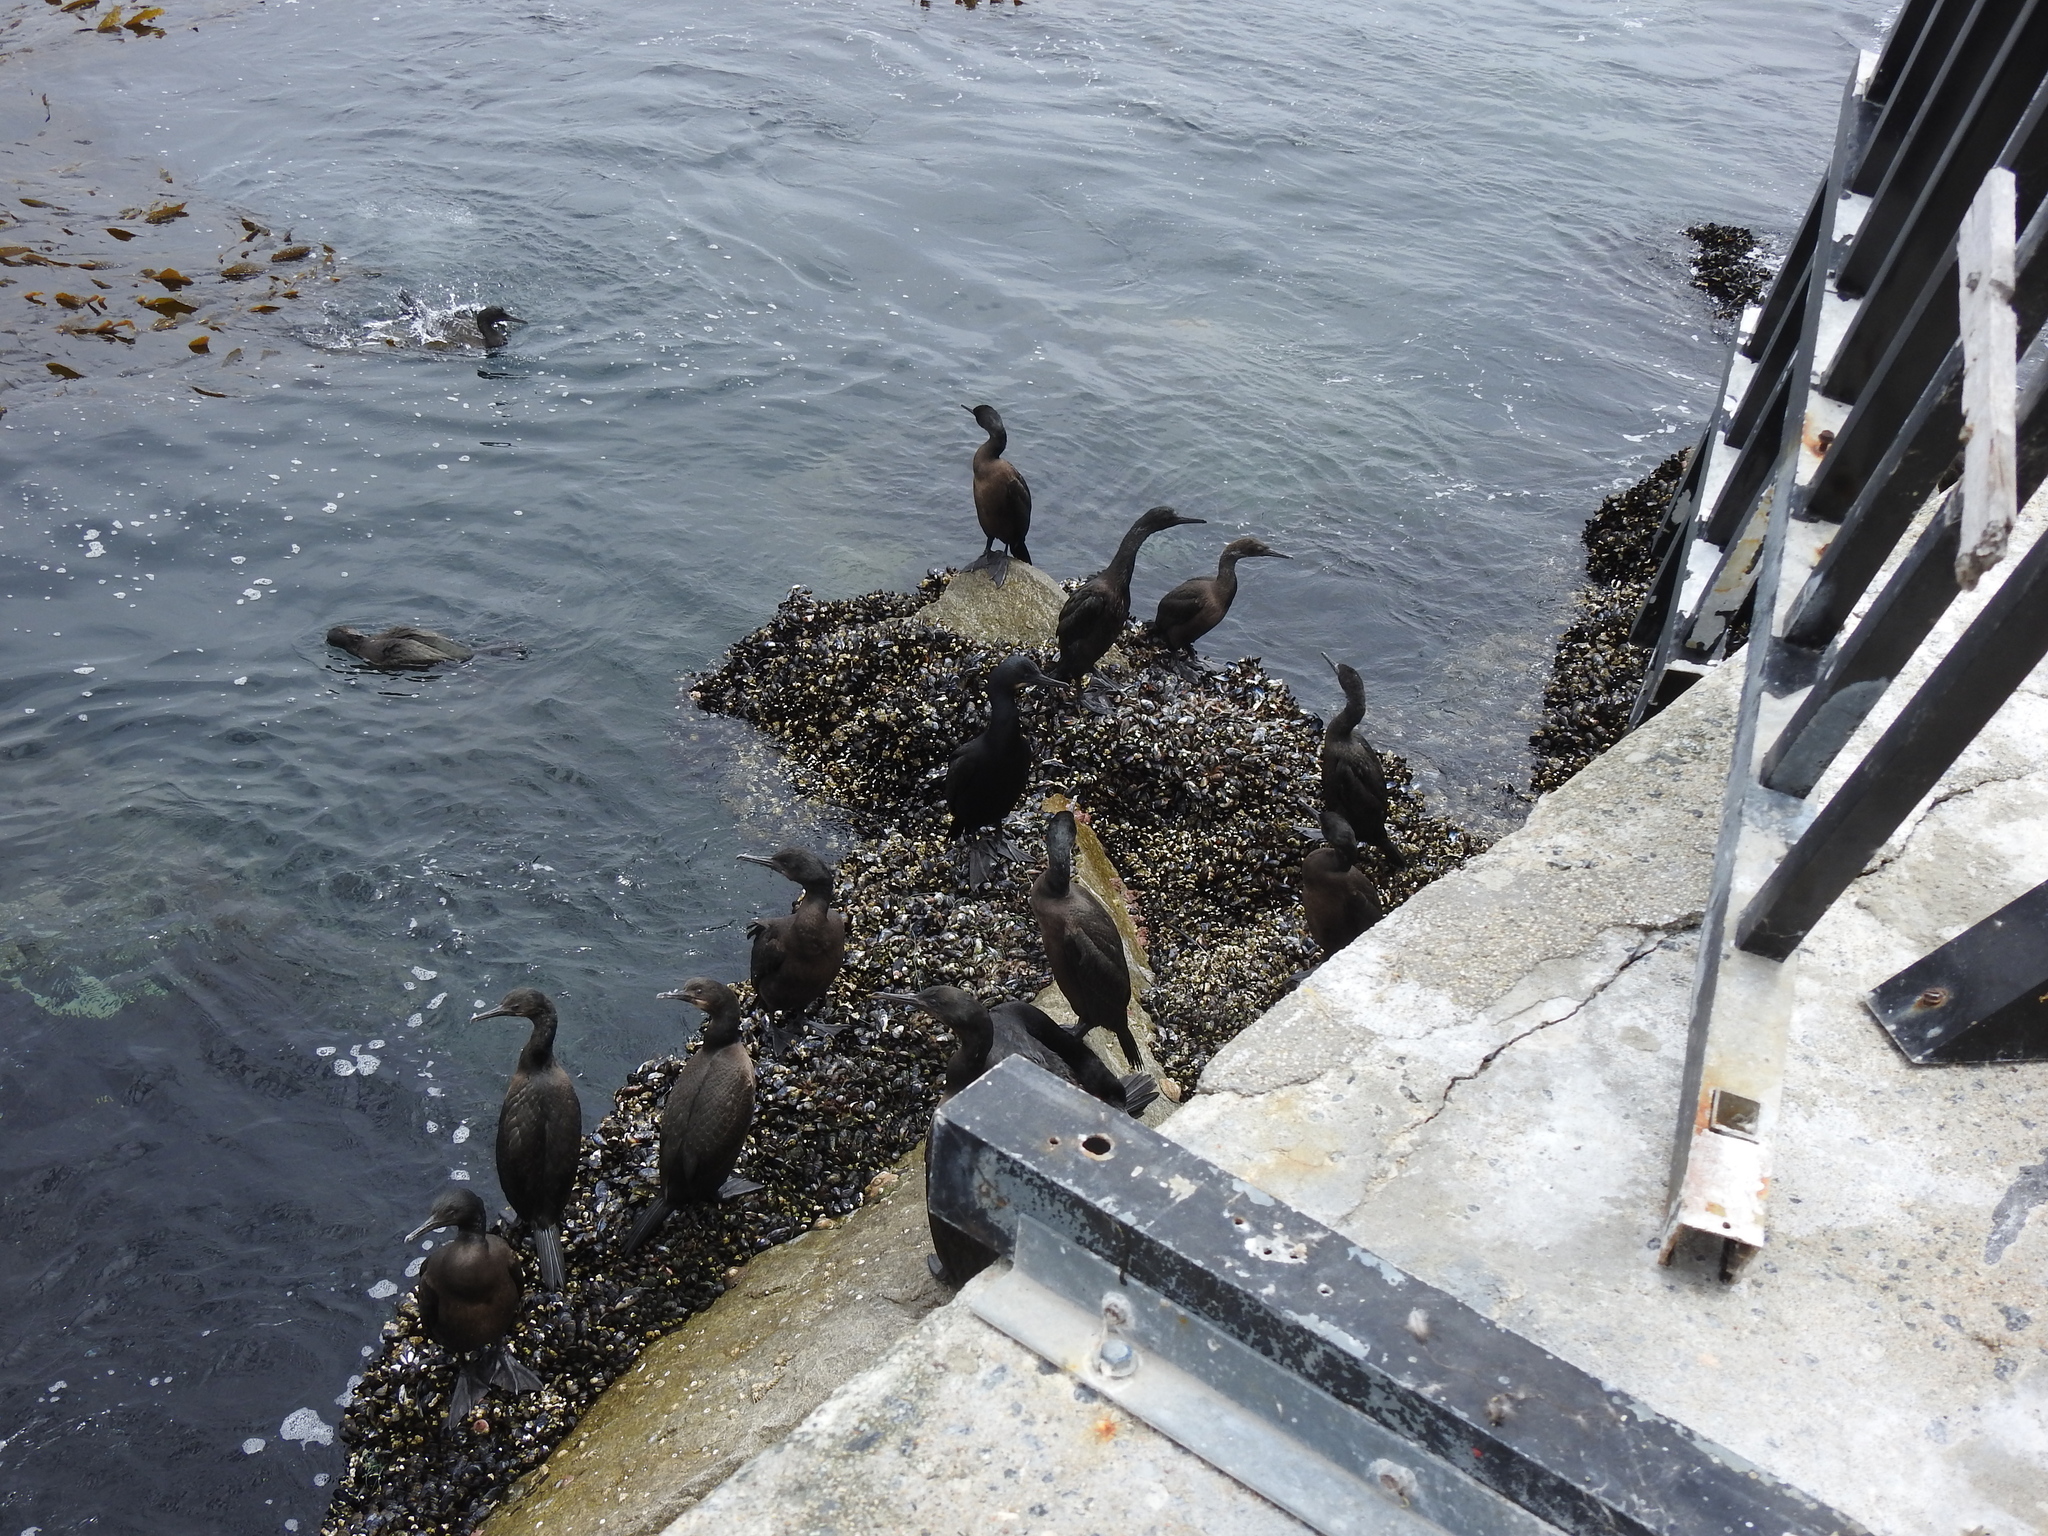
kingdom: Animalia
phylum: Chordata
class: Aves
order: Suliformes
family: Phalacrocoracidae
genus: Urile
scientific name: Urile penicillatus
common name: Brandt's cormorant
